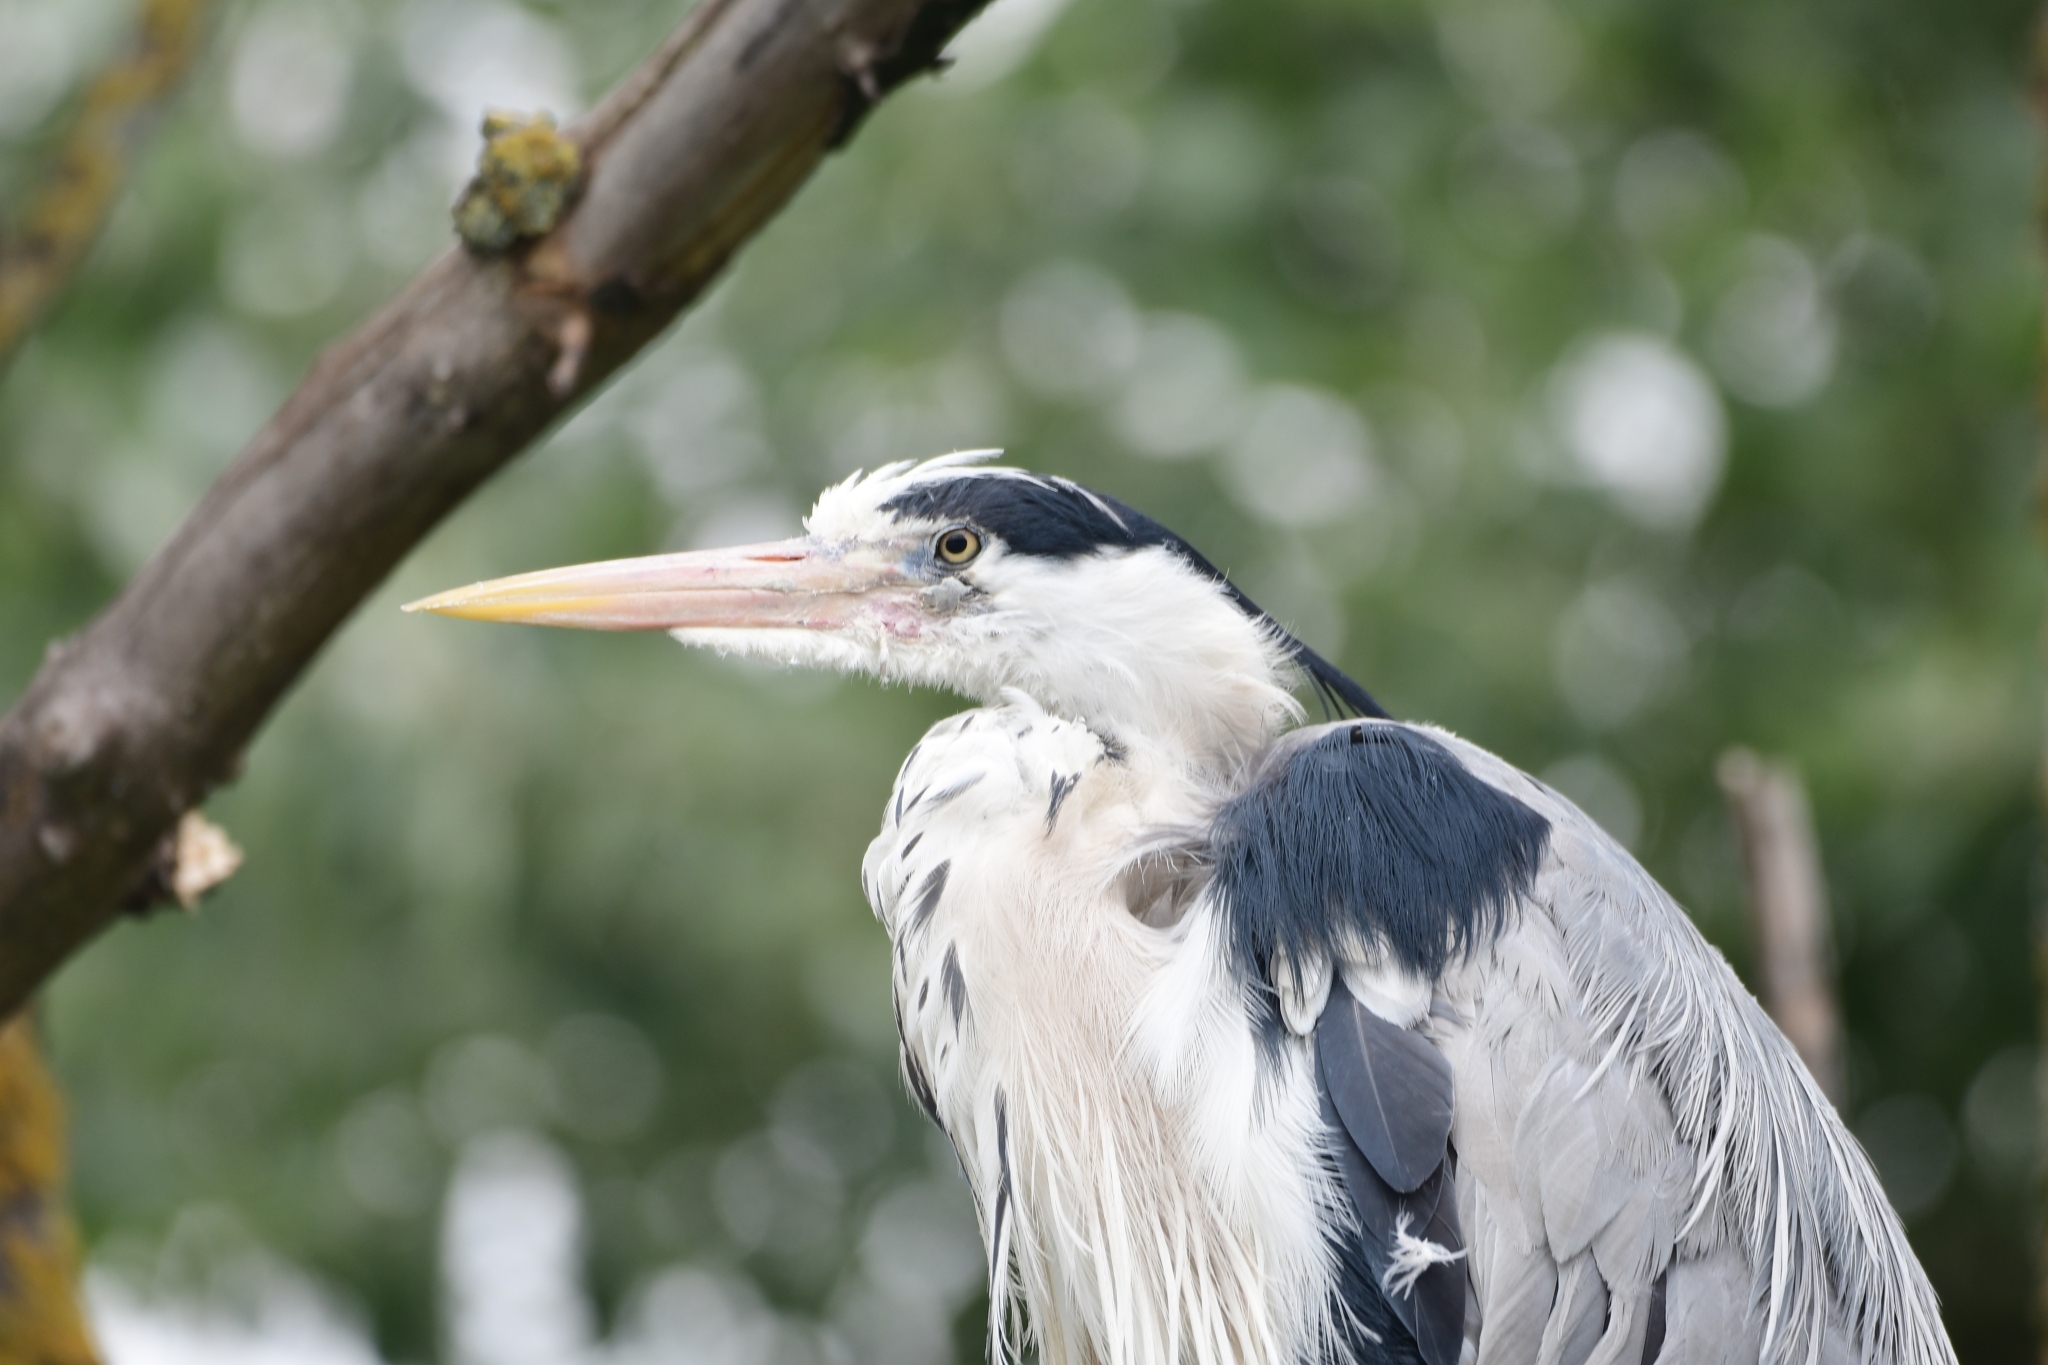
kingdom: Animalia
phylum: Chordata
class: Aves
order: Pelecaniformes
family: Ardeidae
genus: Ardea
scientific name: Ardea cinerea
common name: Grey heron
